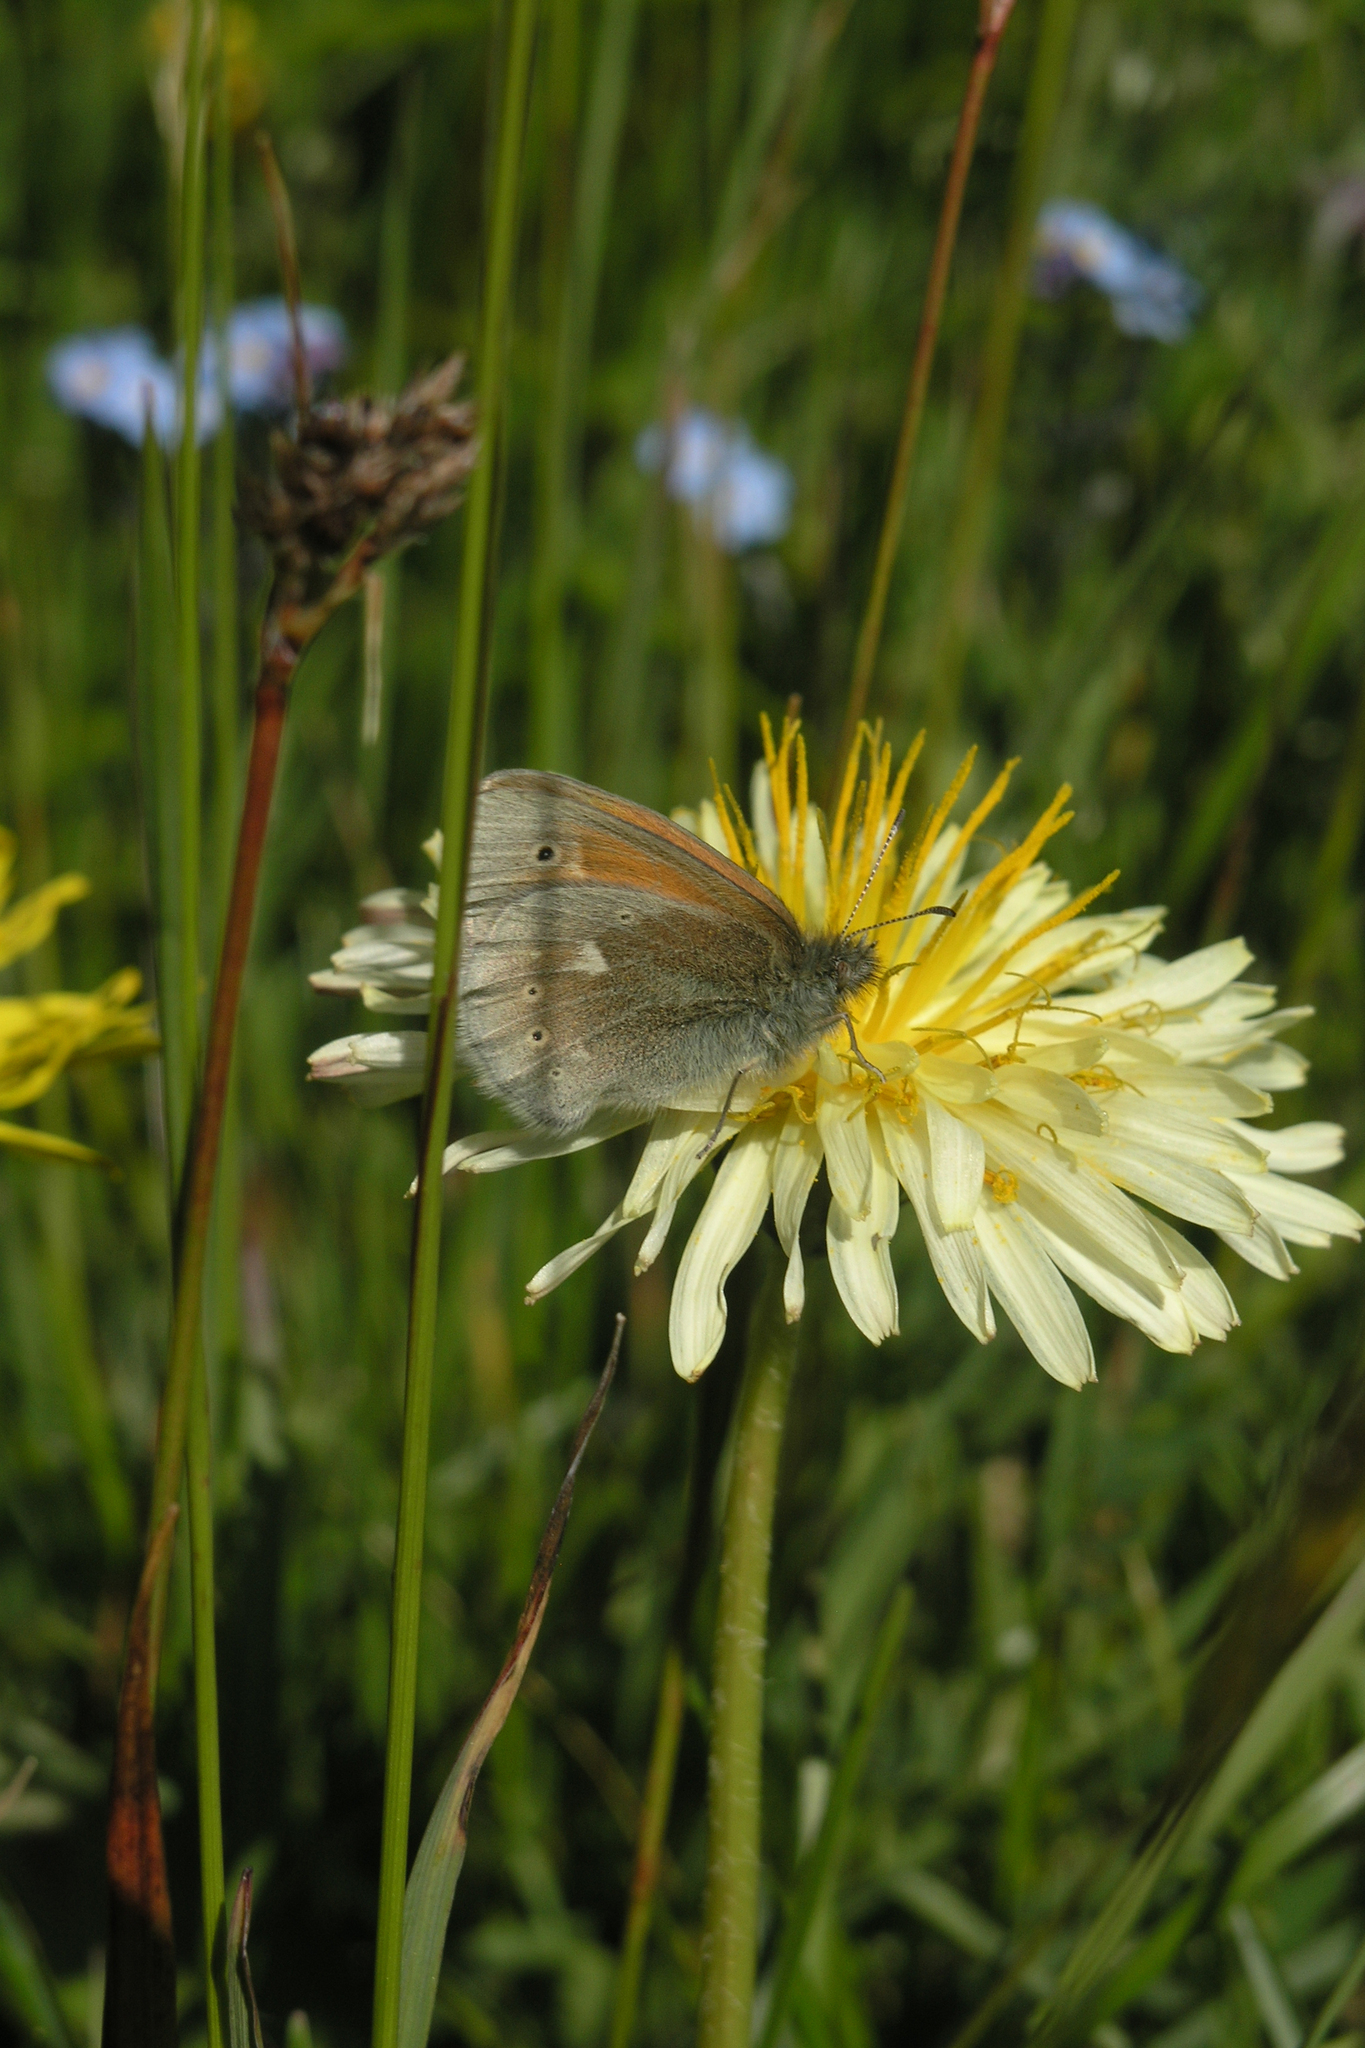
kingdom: Animalia
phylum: Arthropoda
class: Insecta
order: Lepidoptera
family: Nymphalidae
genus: Coenonympha
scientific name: Coenonympha tullia
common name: Large heath
